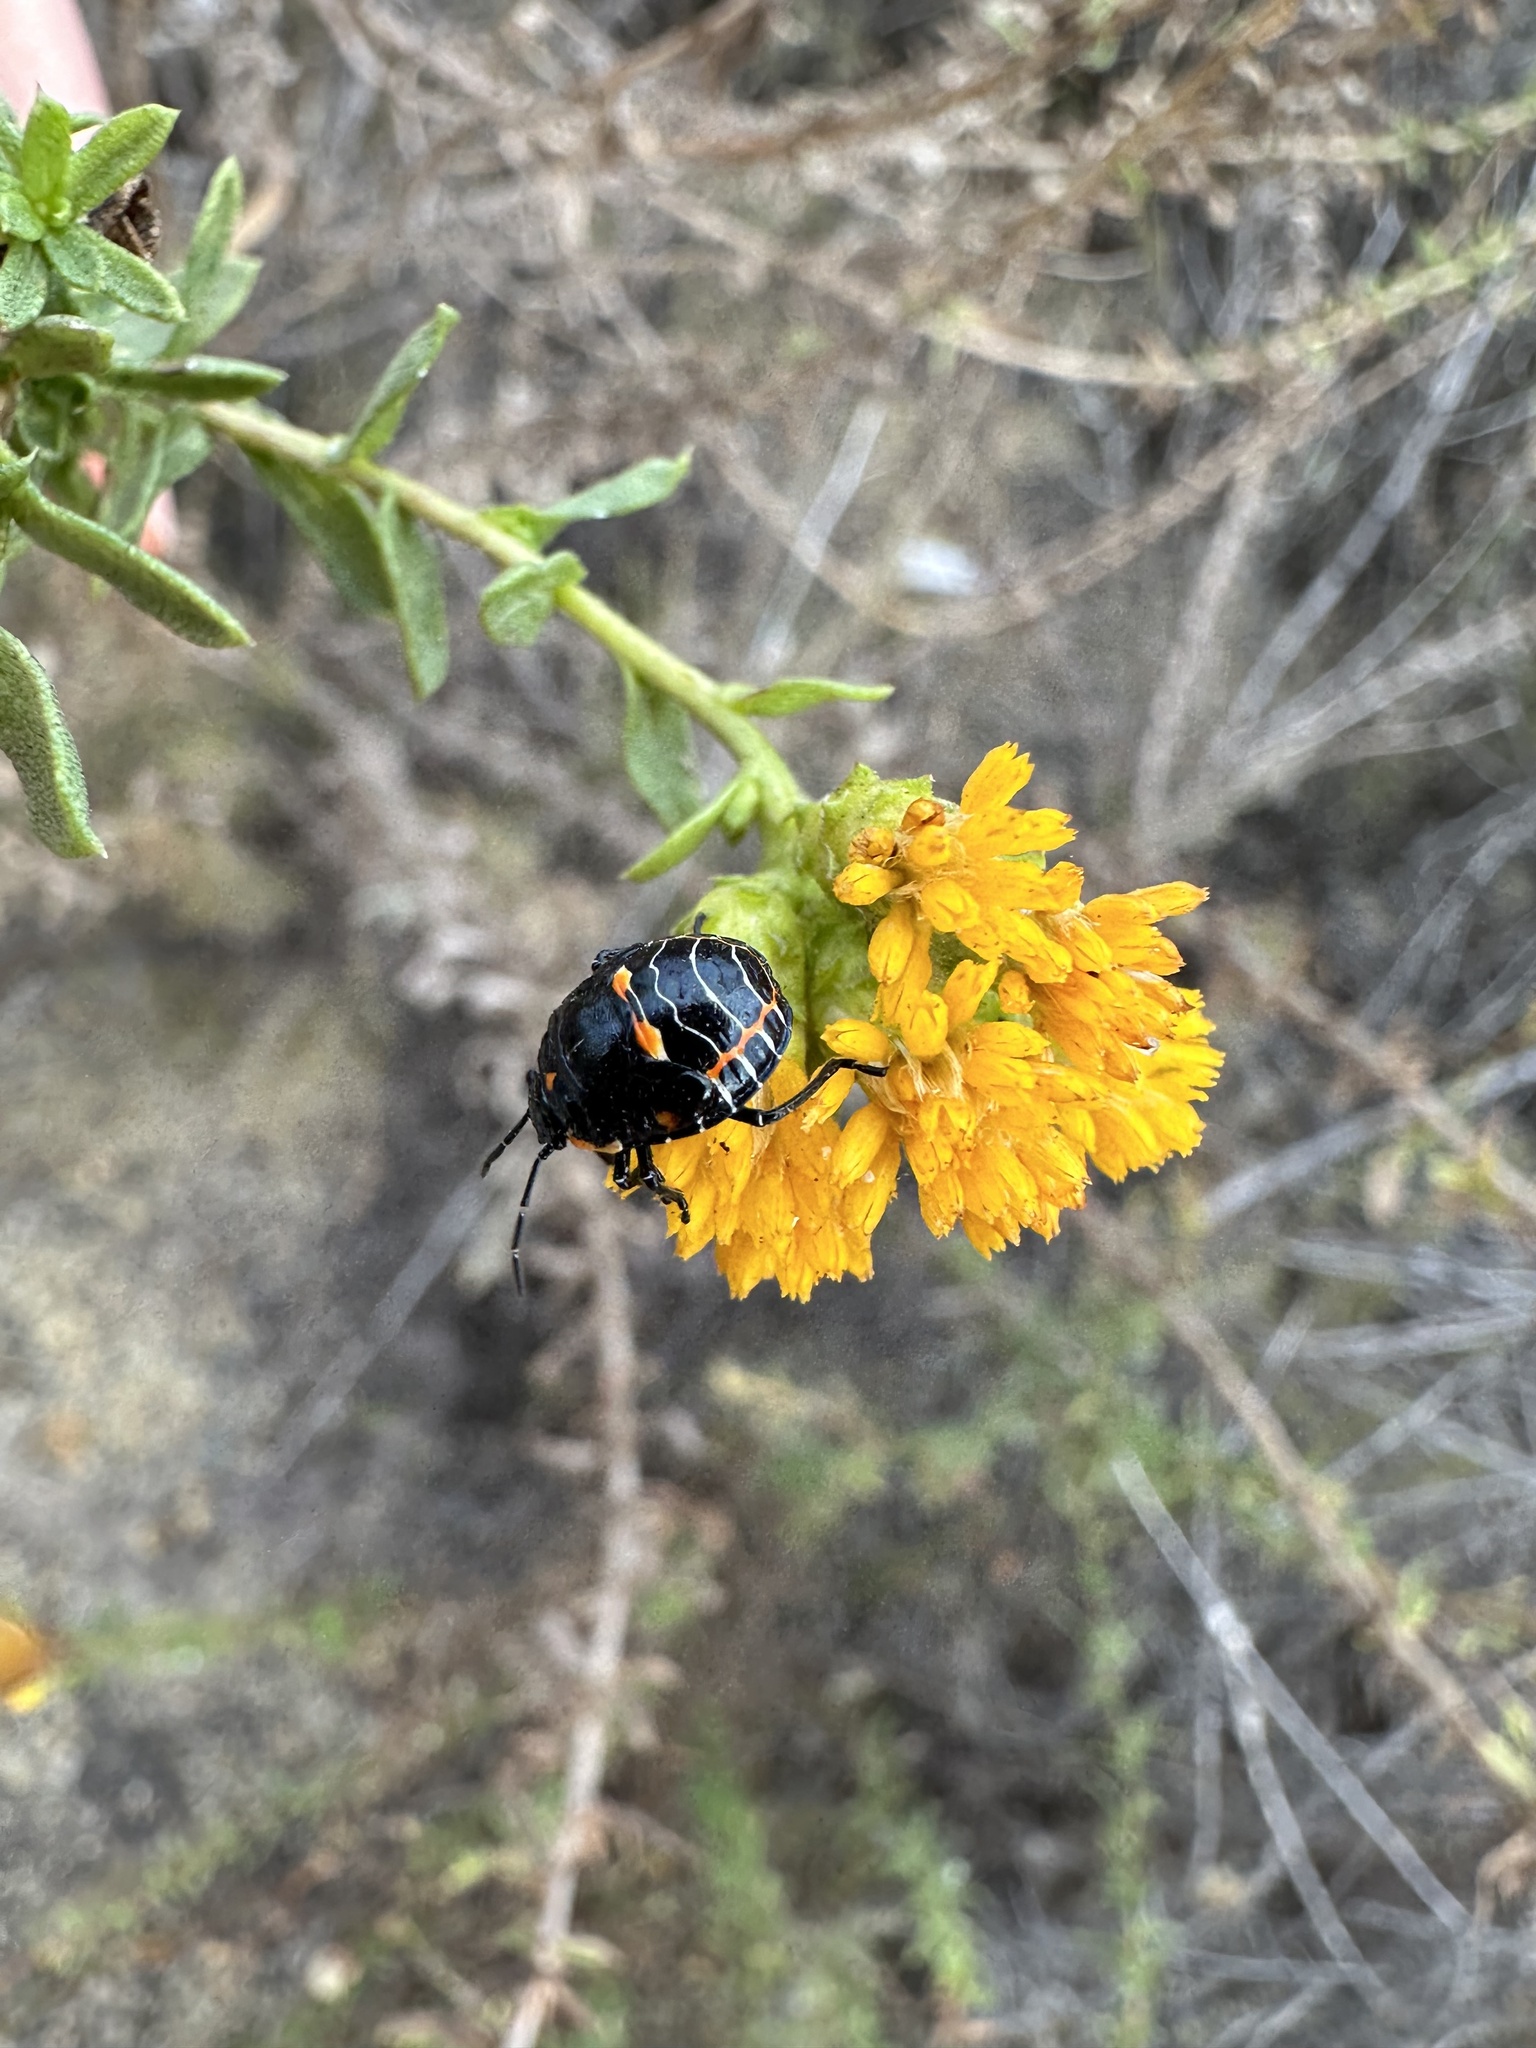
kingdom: Animalia
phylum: Arthropoda
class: Insecta
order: Hemiptera
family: Pentatomidae
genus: Murgantia
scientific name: Murgantia histrionica
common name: Harlequin bug
